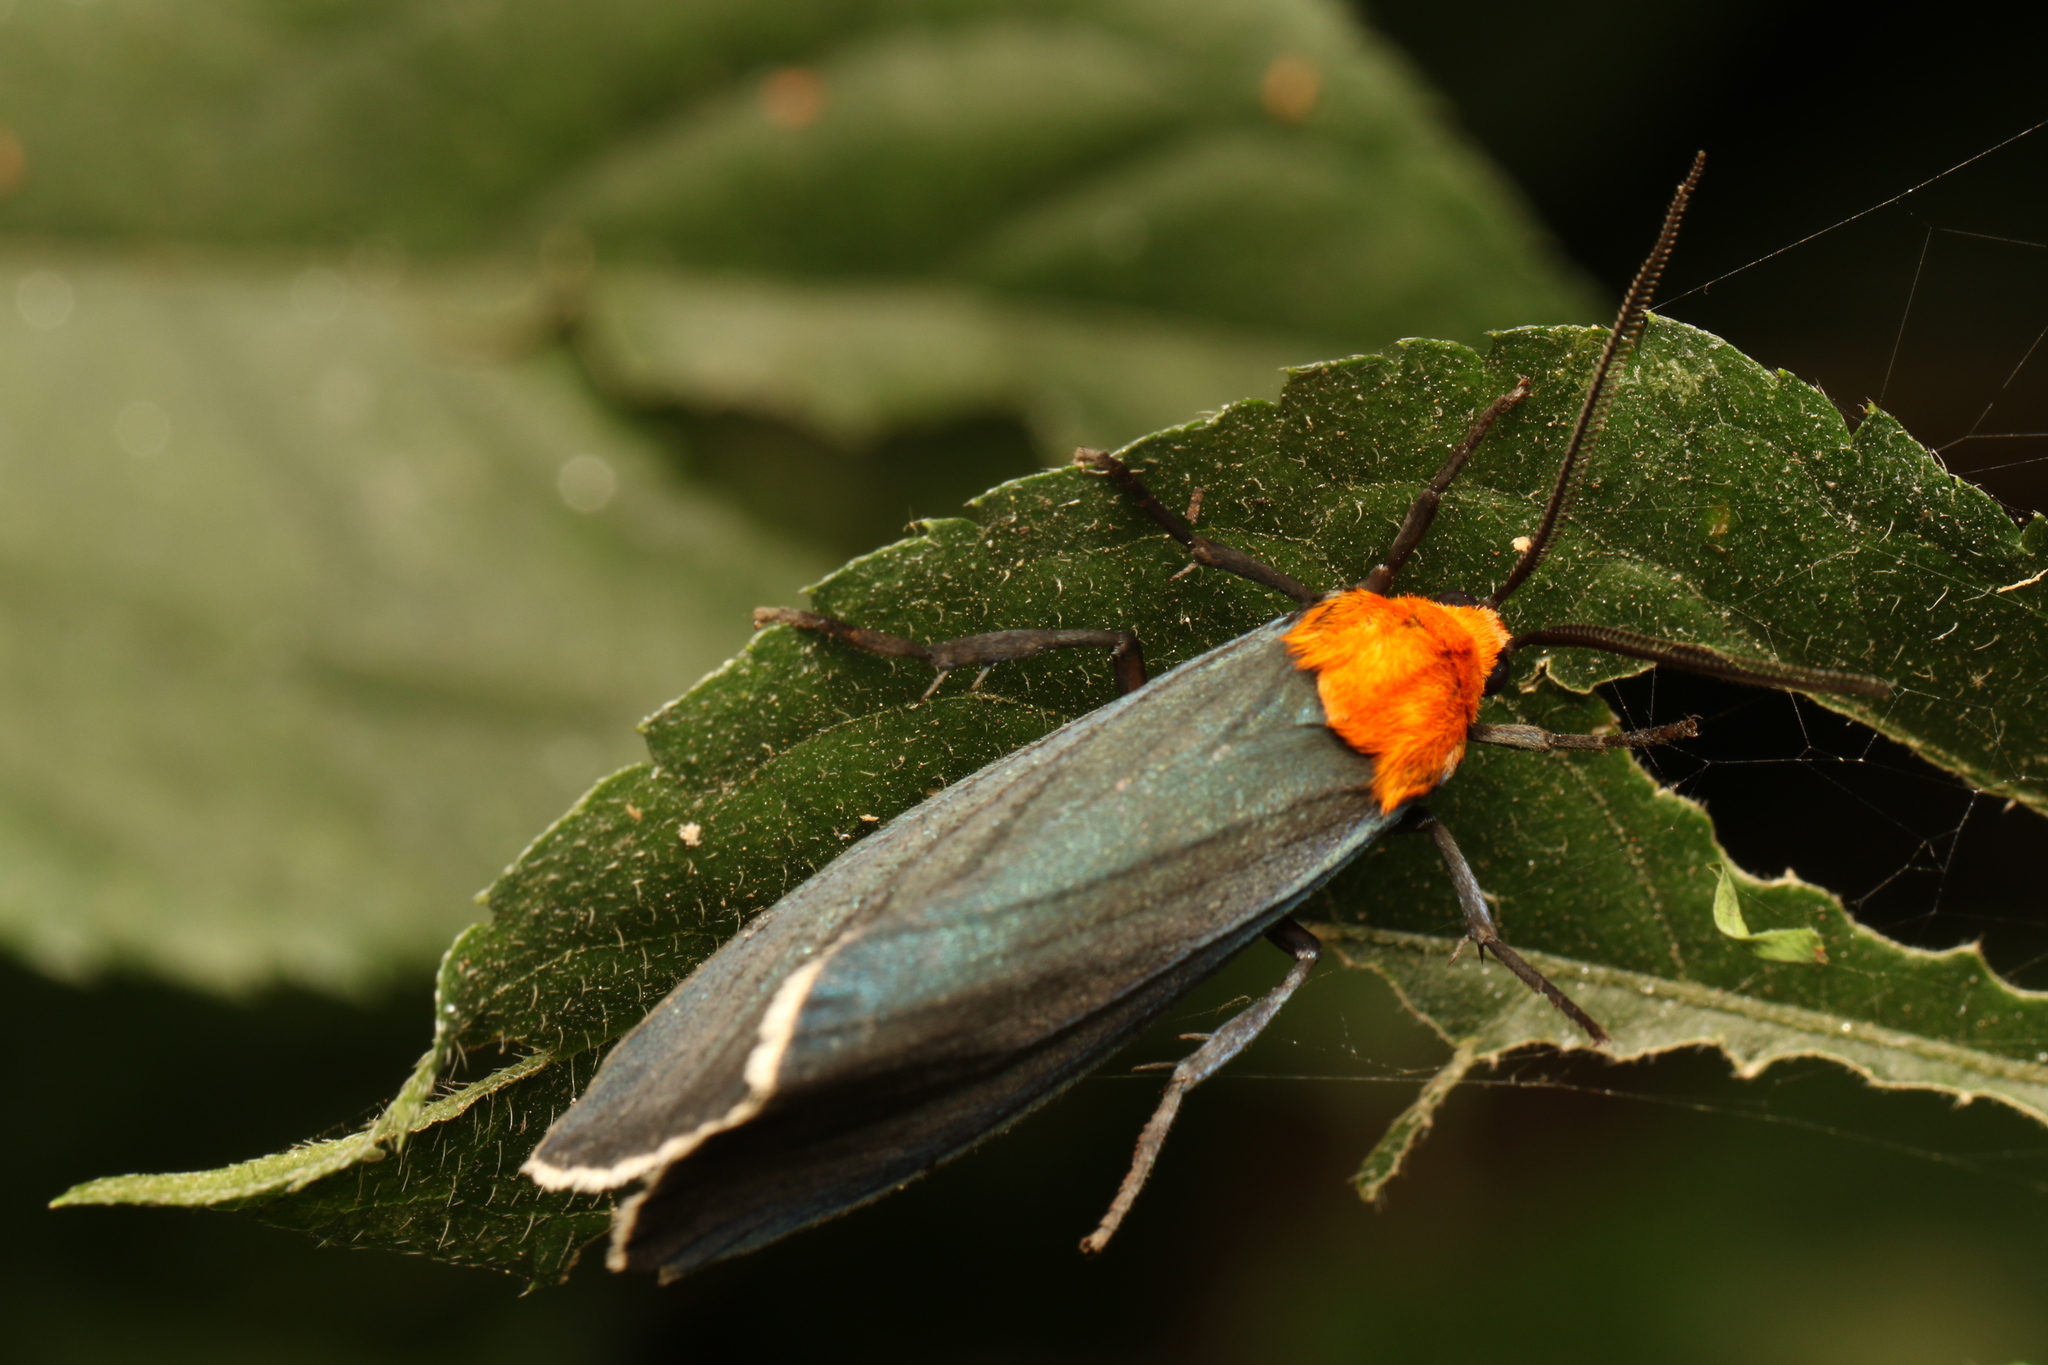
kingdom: Animalia
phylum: Arthropoda
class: Insecta
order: Lepidoptera
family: Erebidae
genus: Apistosia
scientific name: Apistosia judas
